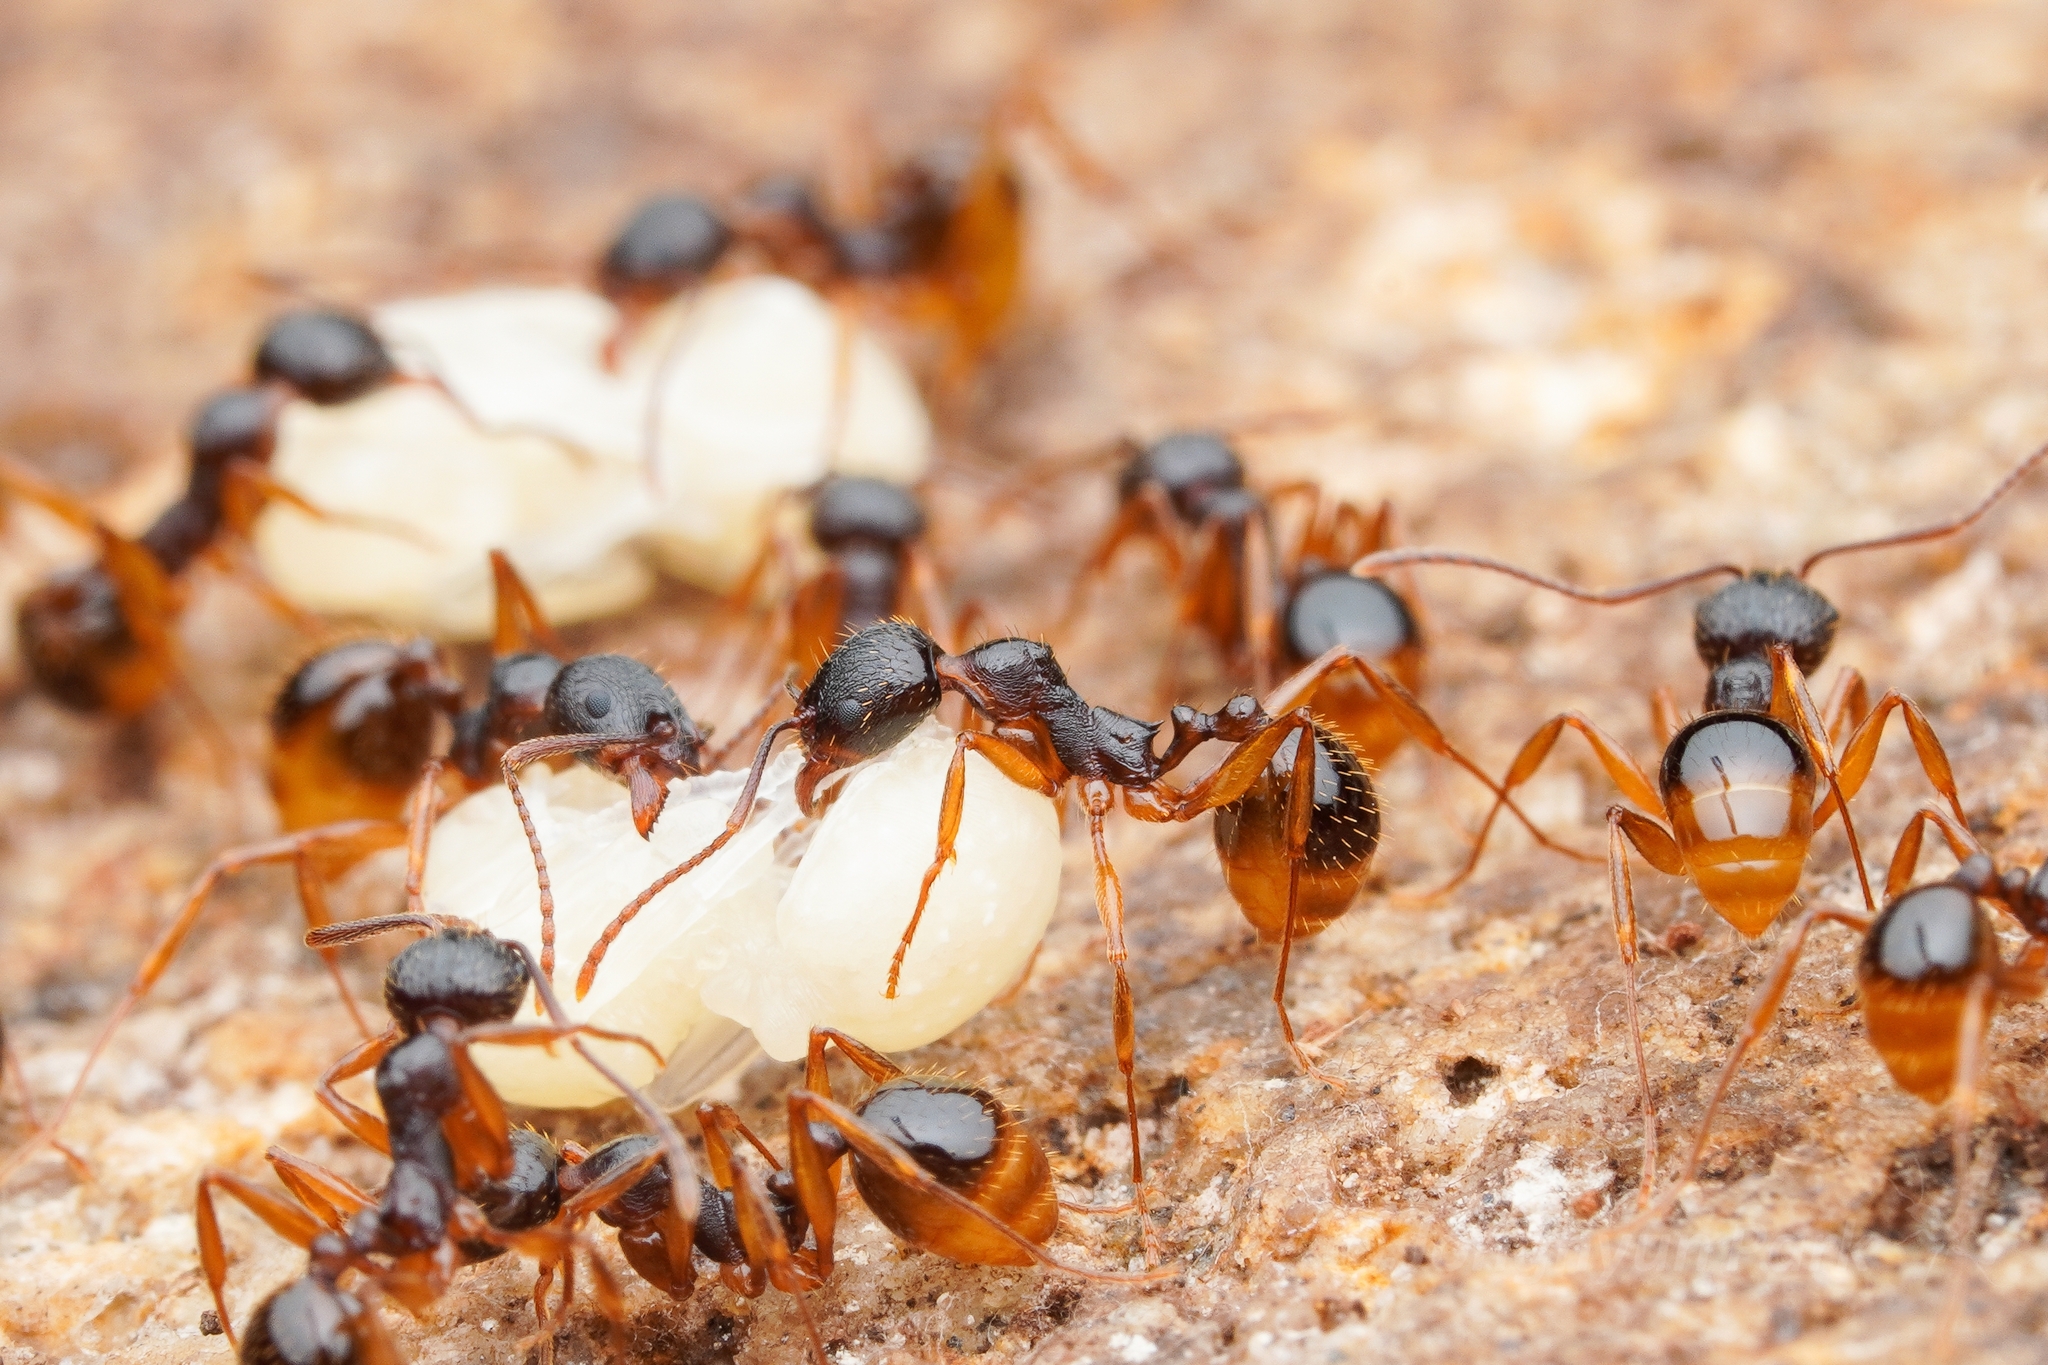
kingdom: Animalia
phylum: Arthropoda
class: Insecta
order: Hymenoptera
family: Formicidae
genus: Aphaenogaster
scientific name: Aphaenogaster japonica
